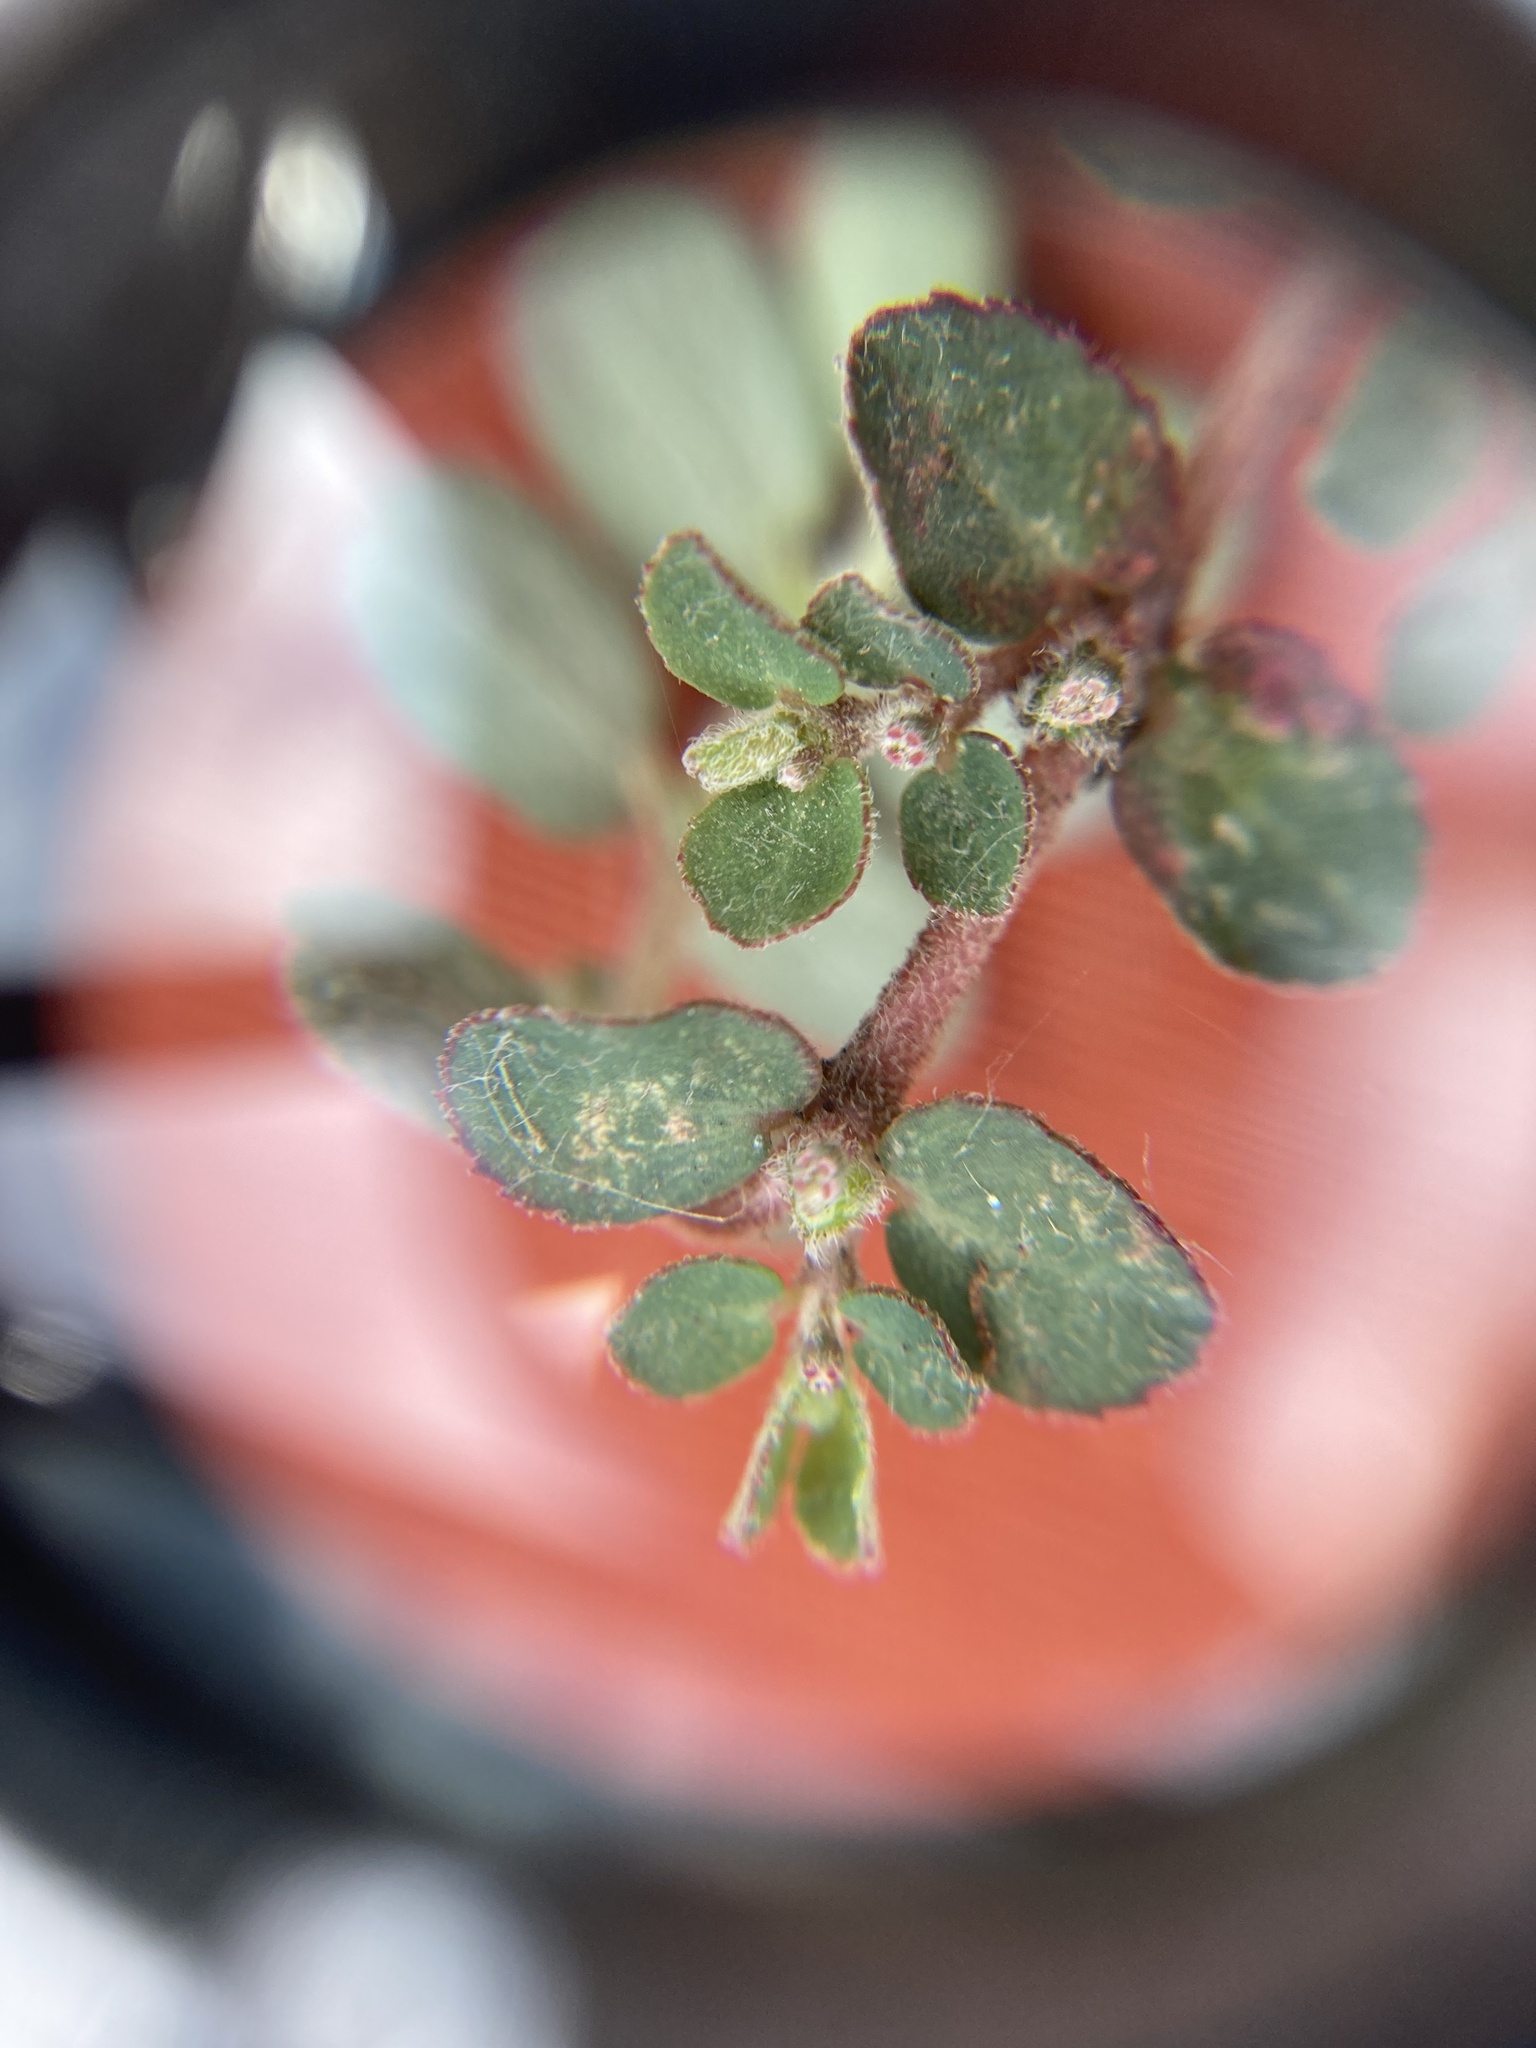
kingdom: Plantae
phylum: Tracheophyta
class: Magnoliopsida
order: Malpighiales
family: Euphorbiaceae
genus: Euphorbia
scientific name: Euphorbia prostrata
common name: Prostrate sandmat
